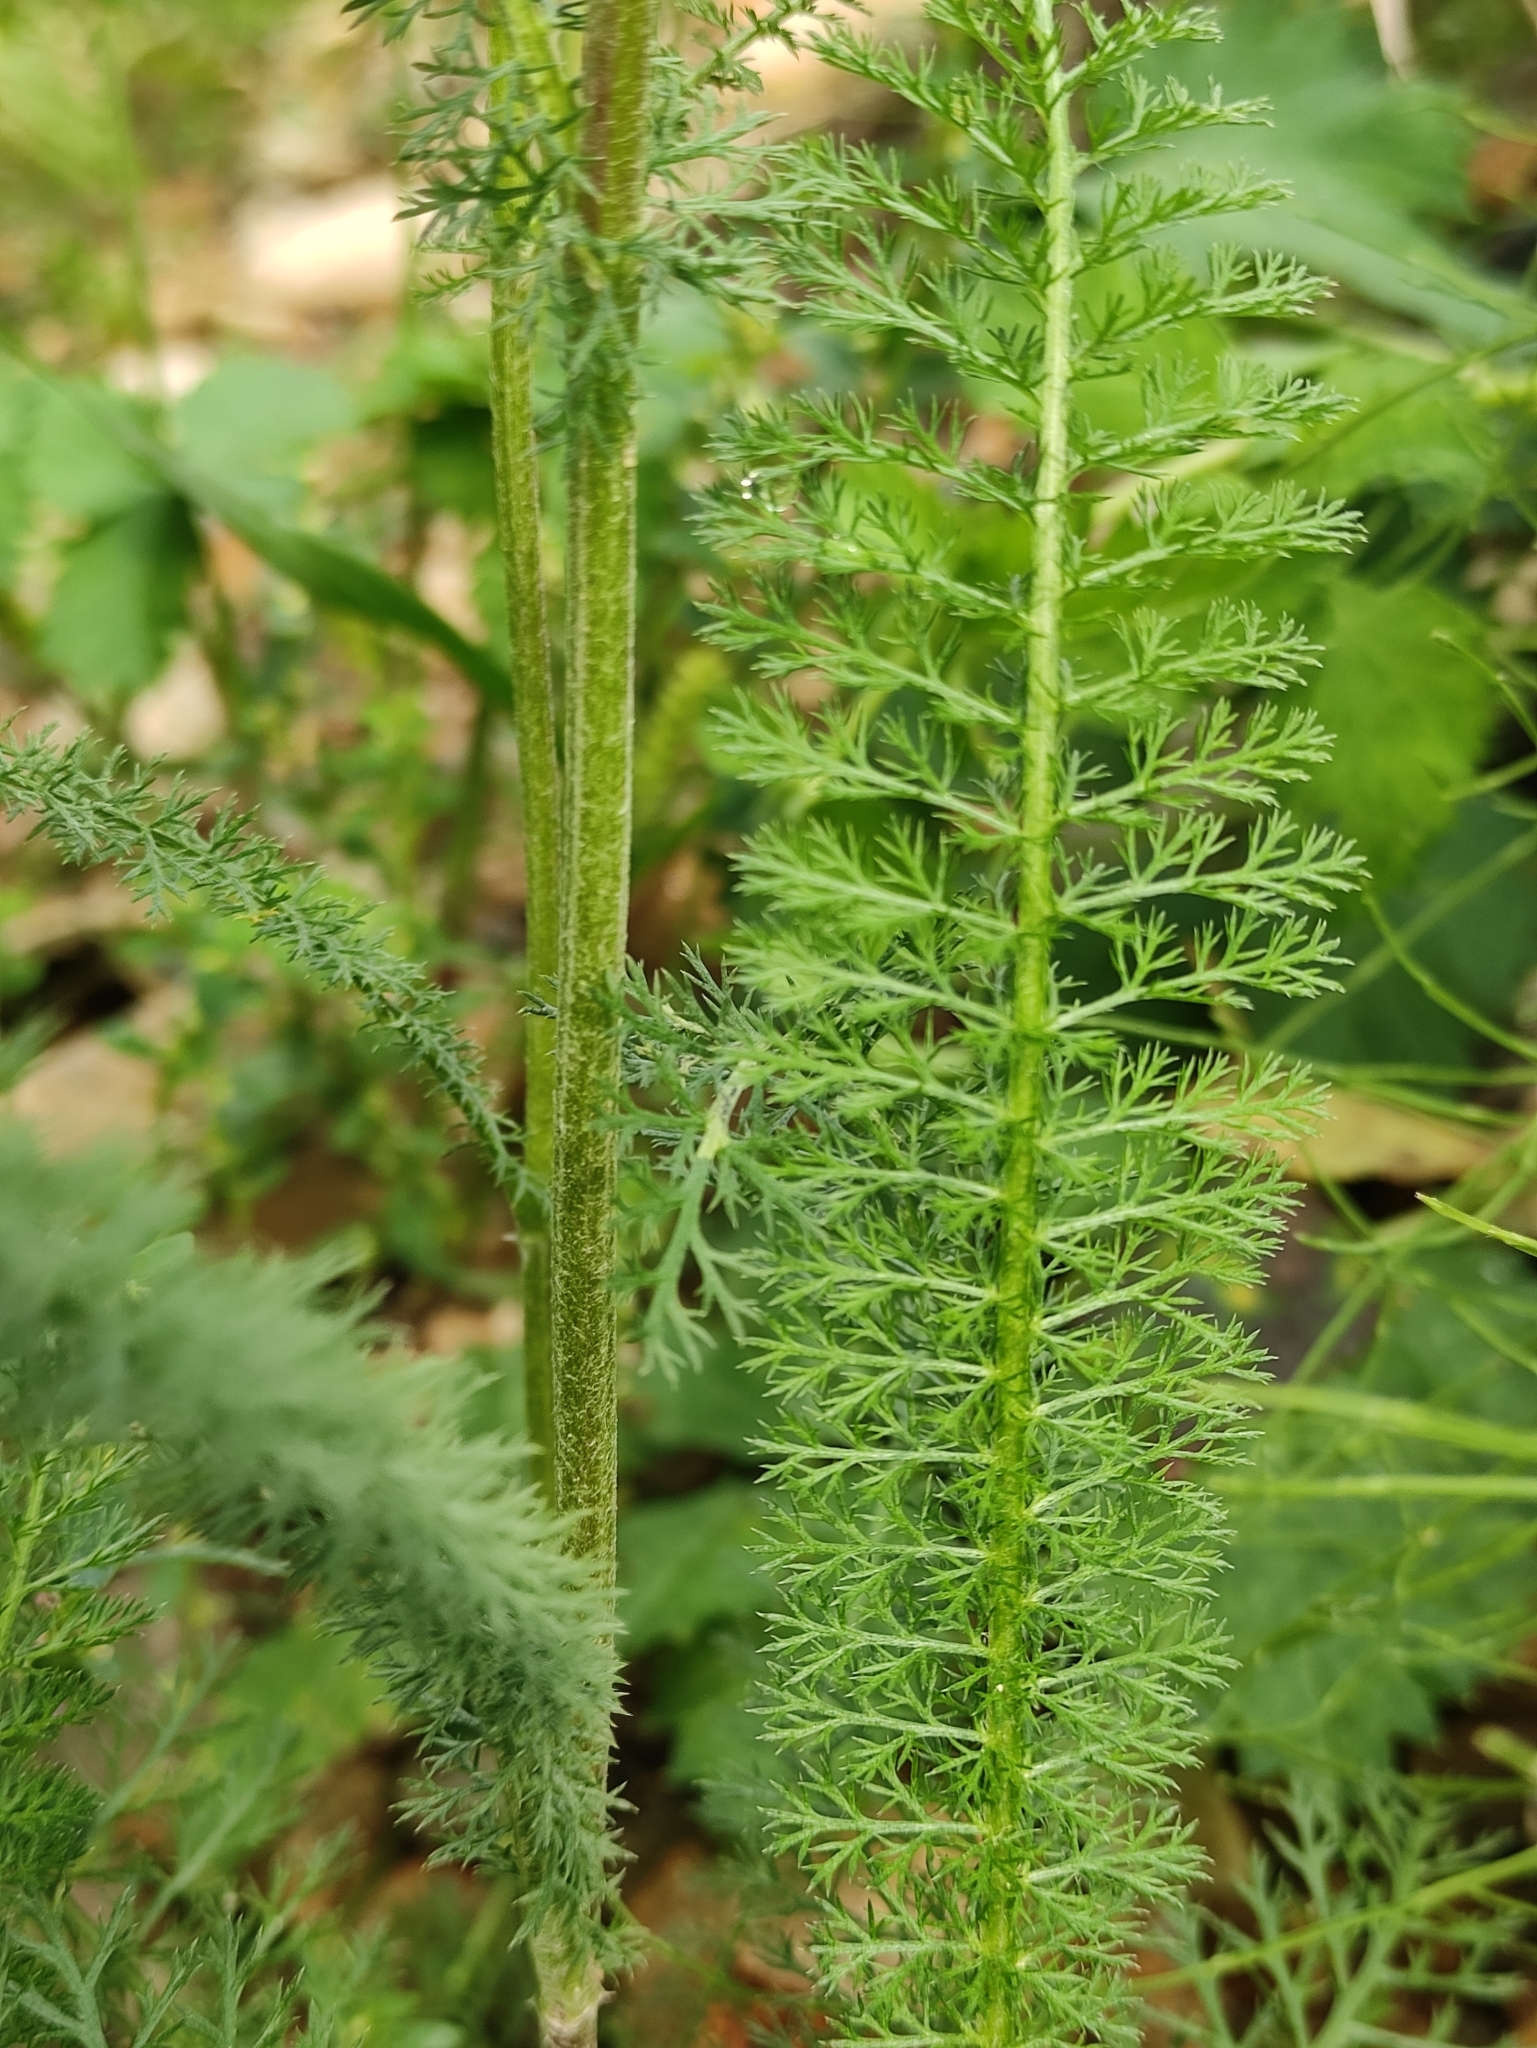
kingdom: Plantae
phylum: Tracheophyta
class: Magnoliopsida
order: Asterales
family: Asteraceae
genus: Achillea
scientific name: Achillea millefolium
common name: Yarrow
